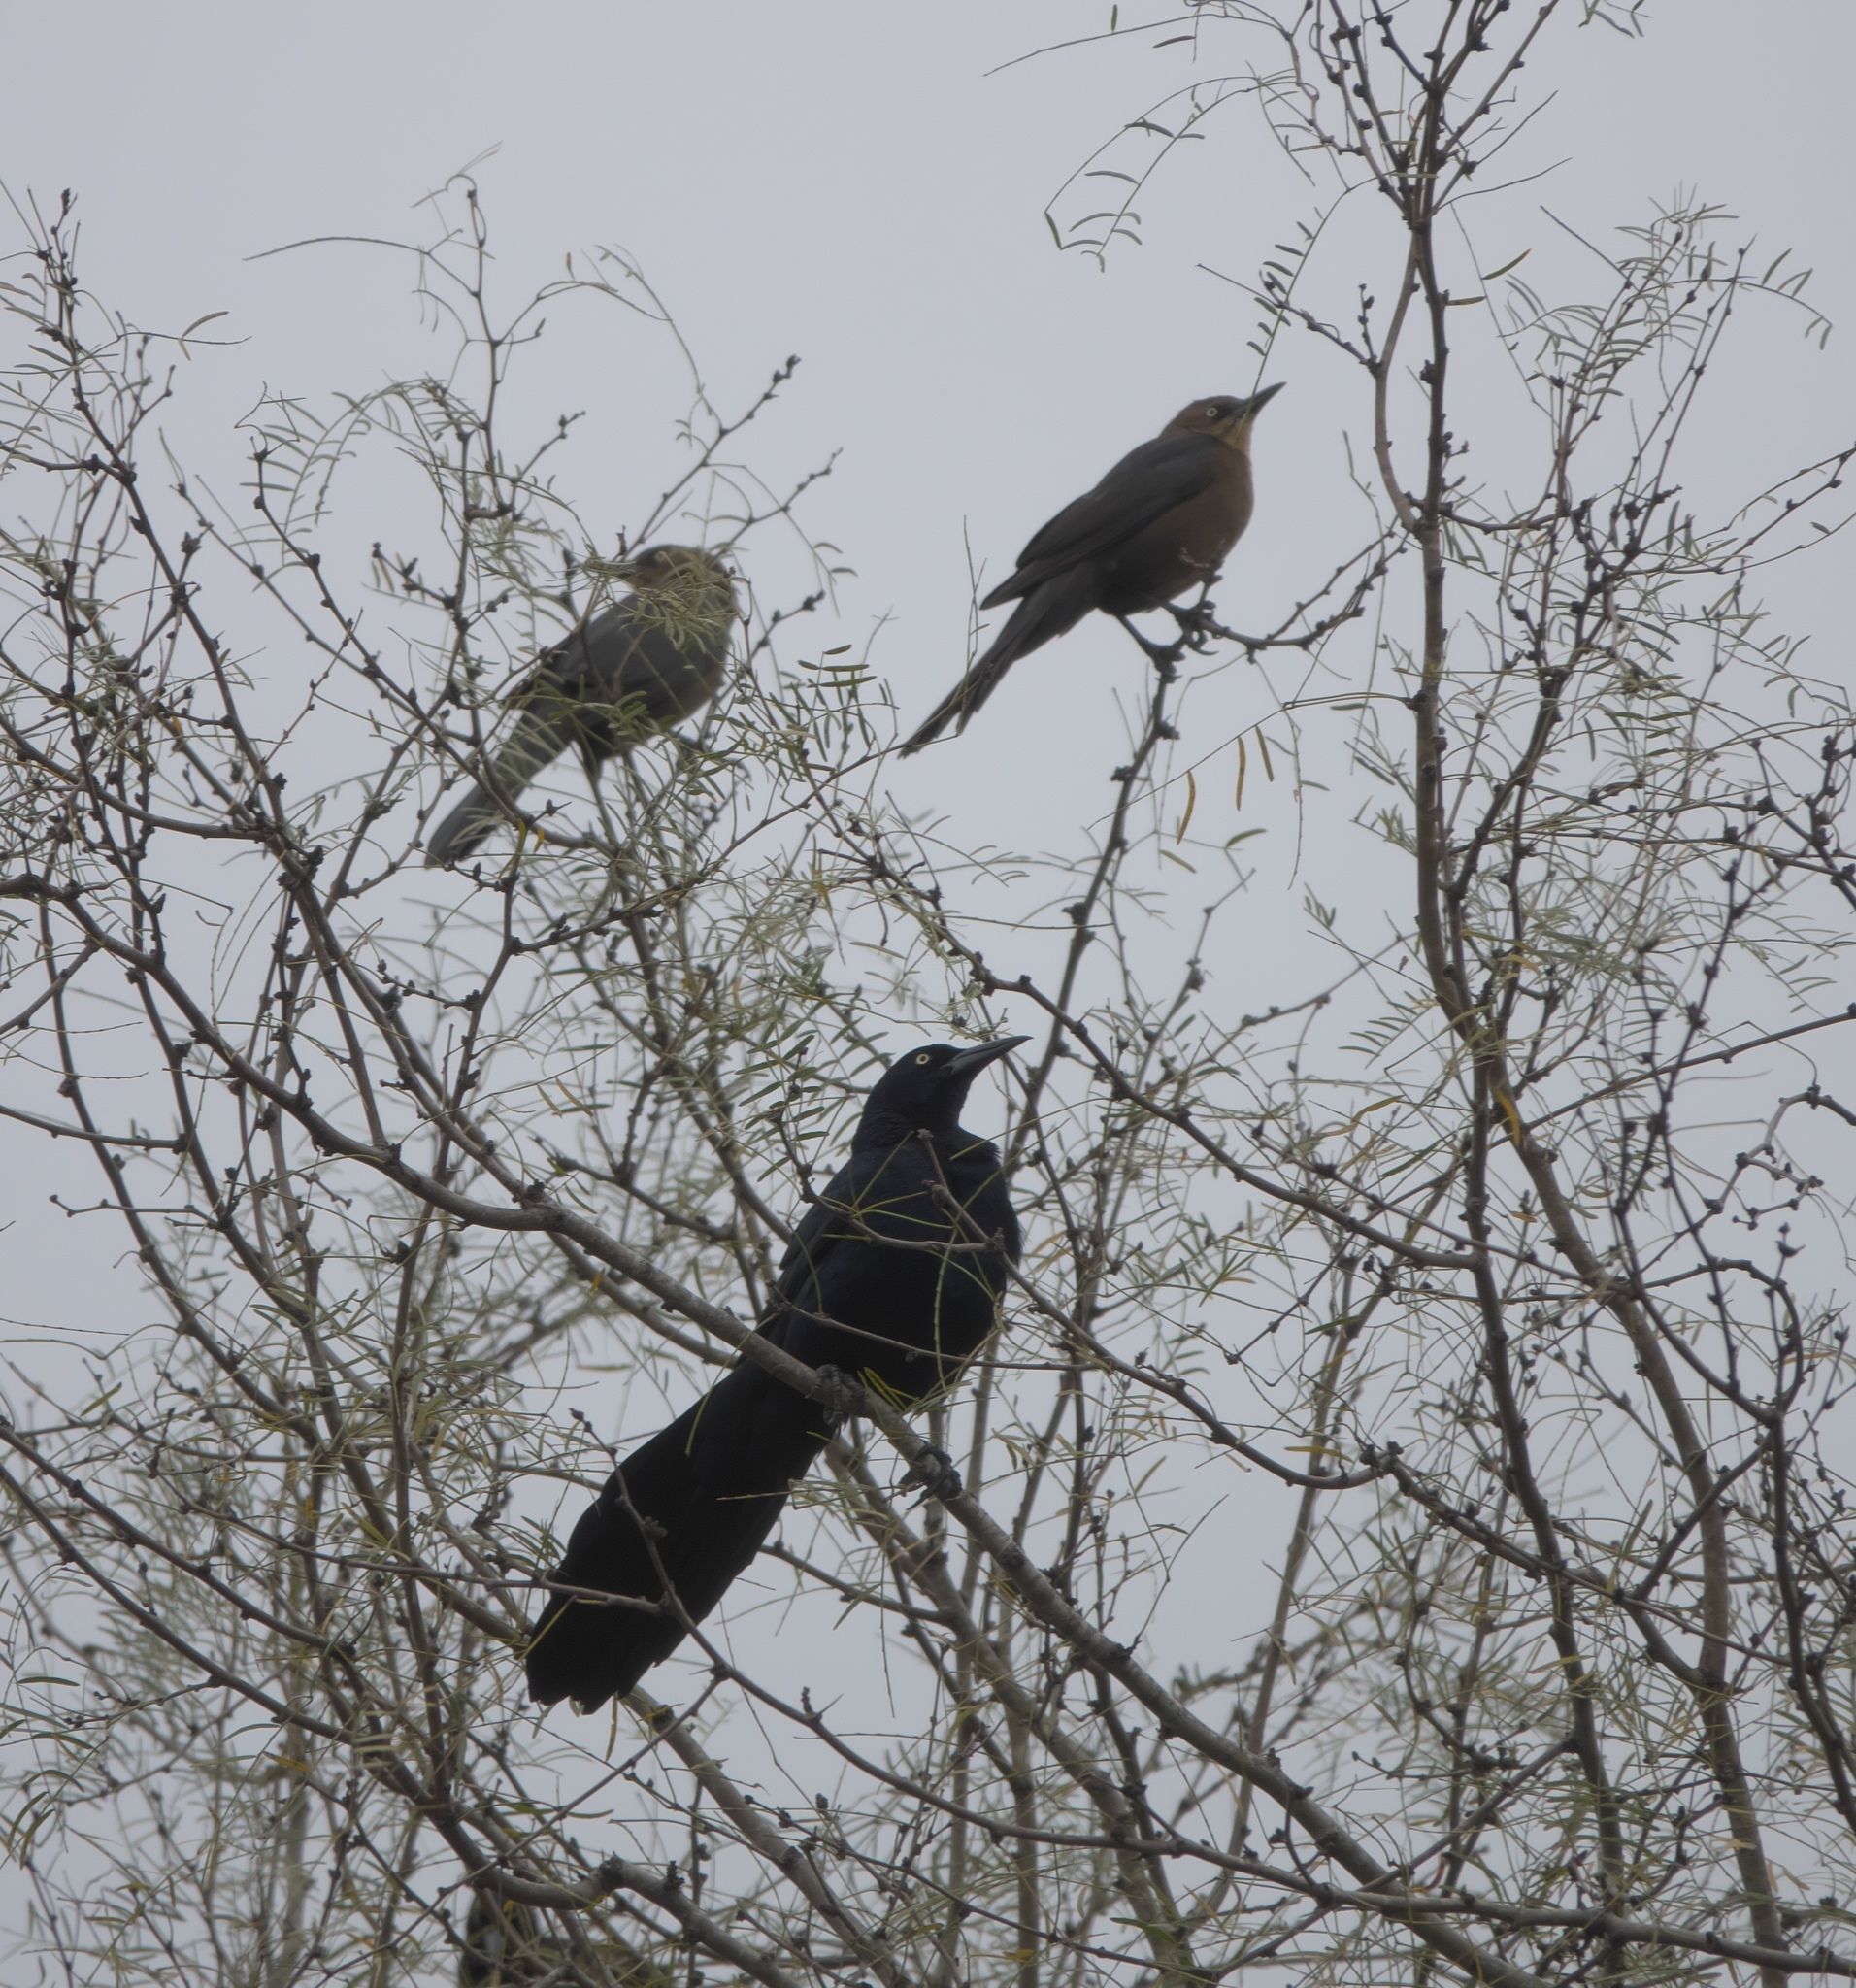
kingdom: Animalia
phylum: Chordata
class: Aves
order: Passeriformes
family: Icteridae
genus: Quiscalus
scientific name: Quiscalus mexicanus
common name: Great-tailed grackle
